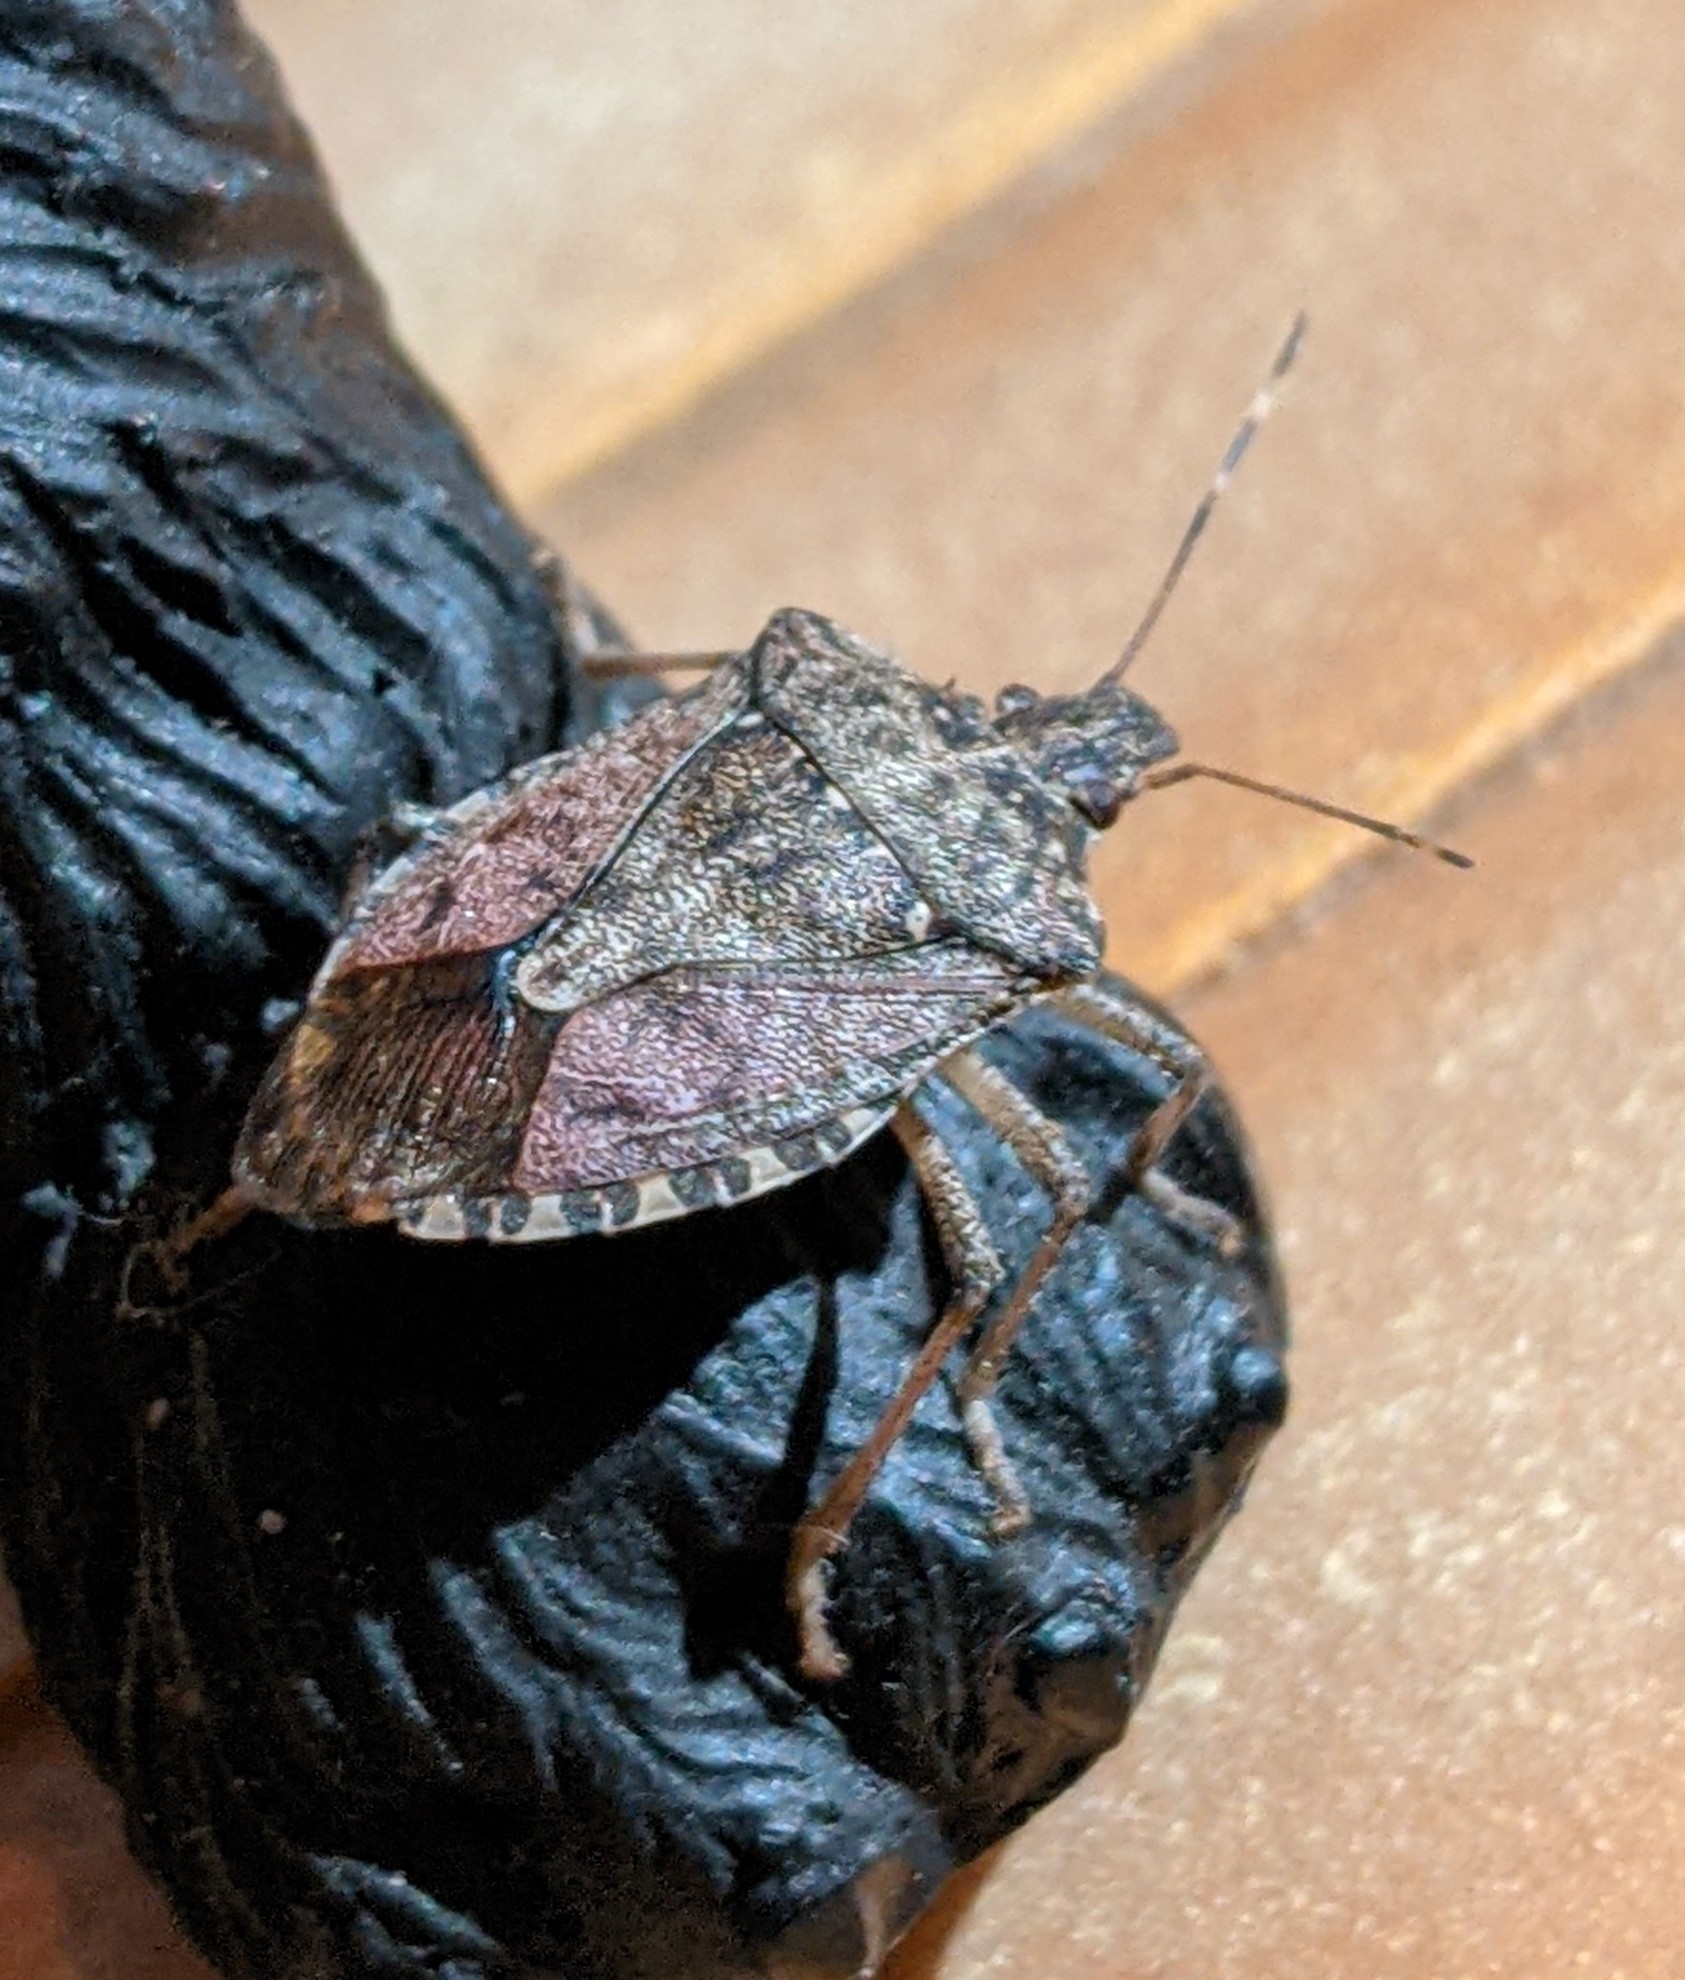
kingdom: Animalia
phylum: Arthropoda
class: Insecta
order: Hemiptera
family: Pentatomidae
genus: Halyomorpha
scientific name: Halyomorpha halys
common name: Brown marmorated stink bug
